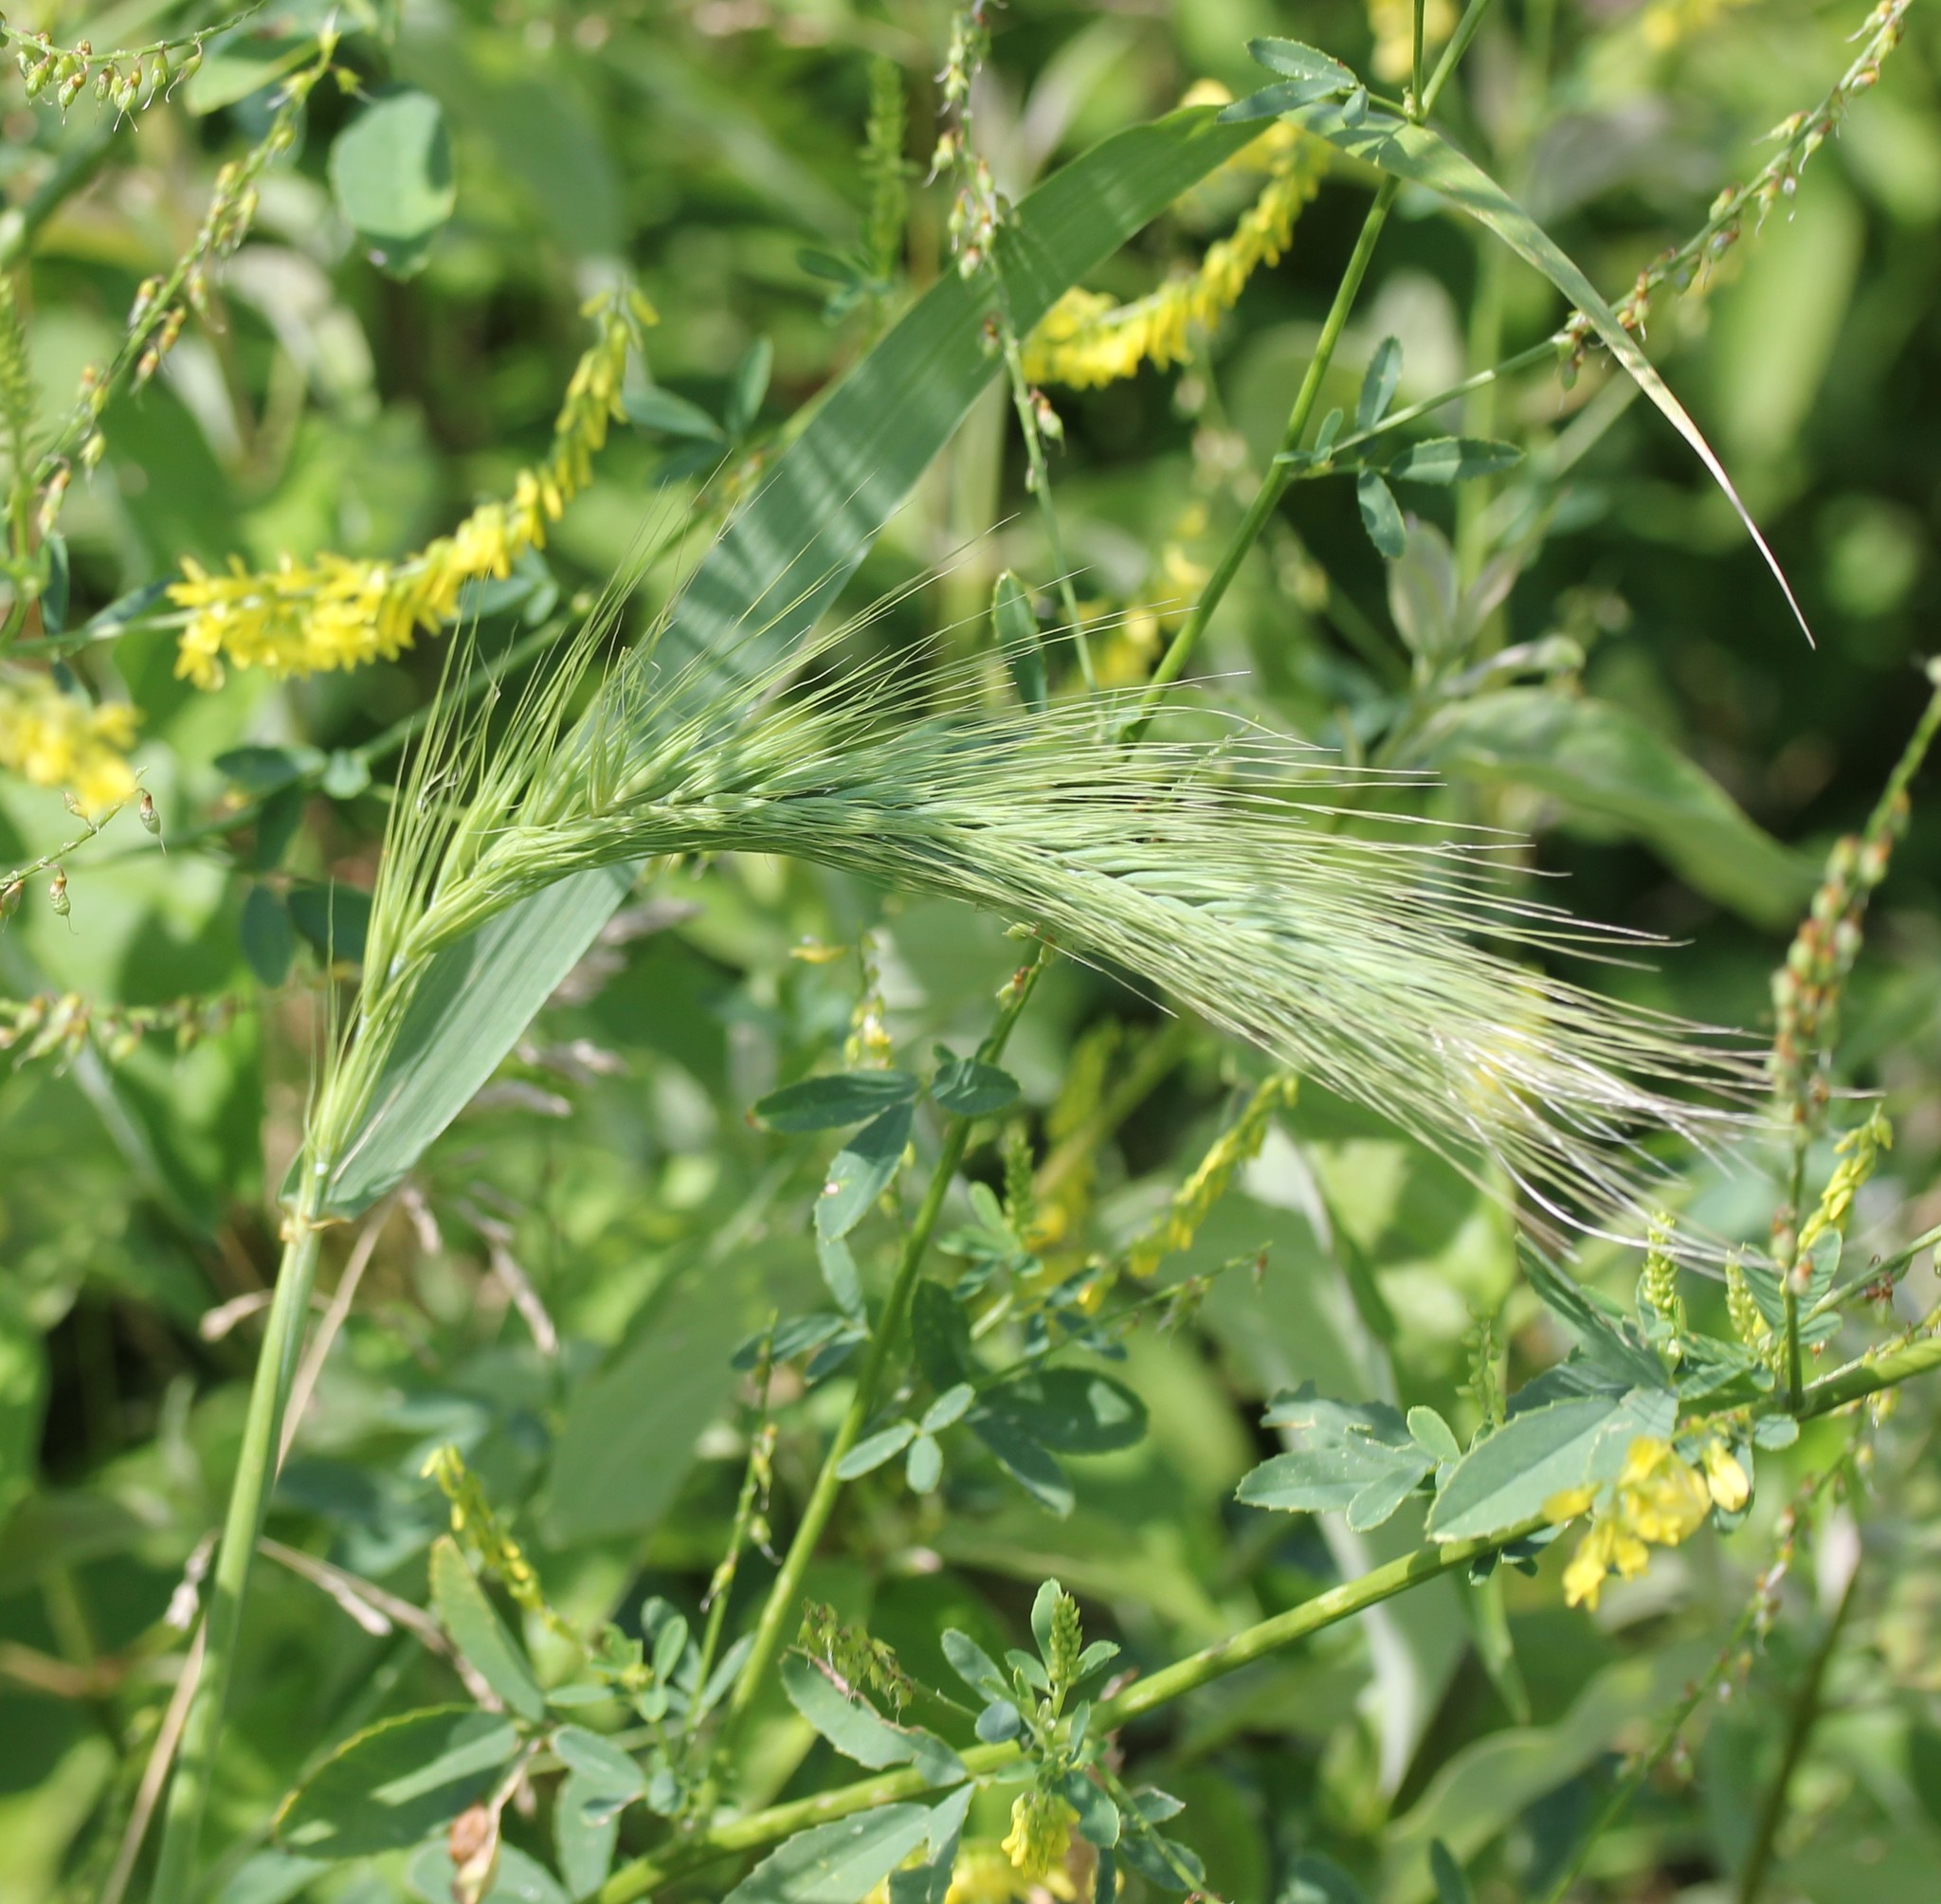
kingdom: Plantae
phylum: Tracheophyta
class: Liliopsida
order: Poales
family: Poaceae
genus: Elymus
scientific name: Elymus canadensis
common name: Canada wild rye
